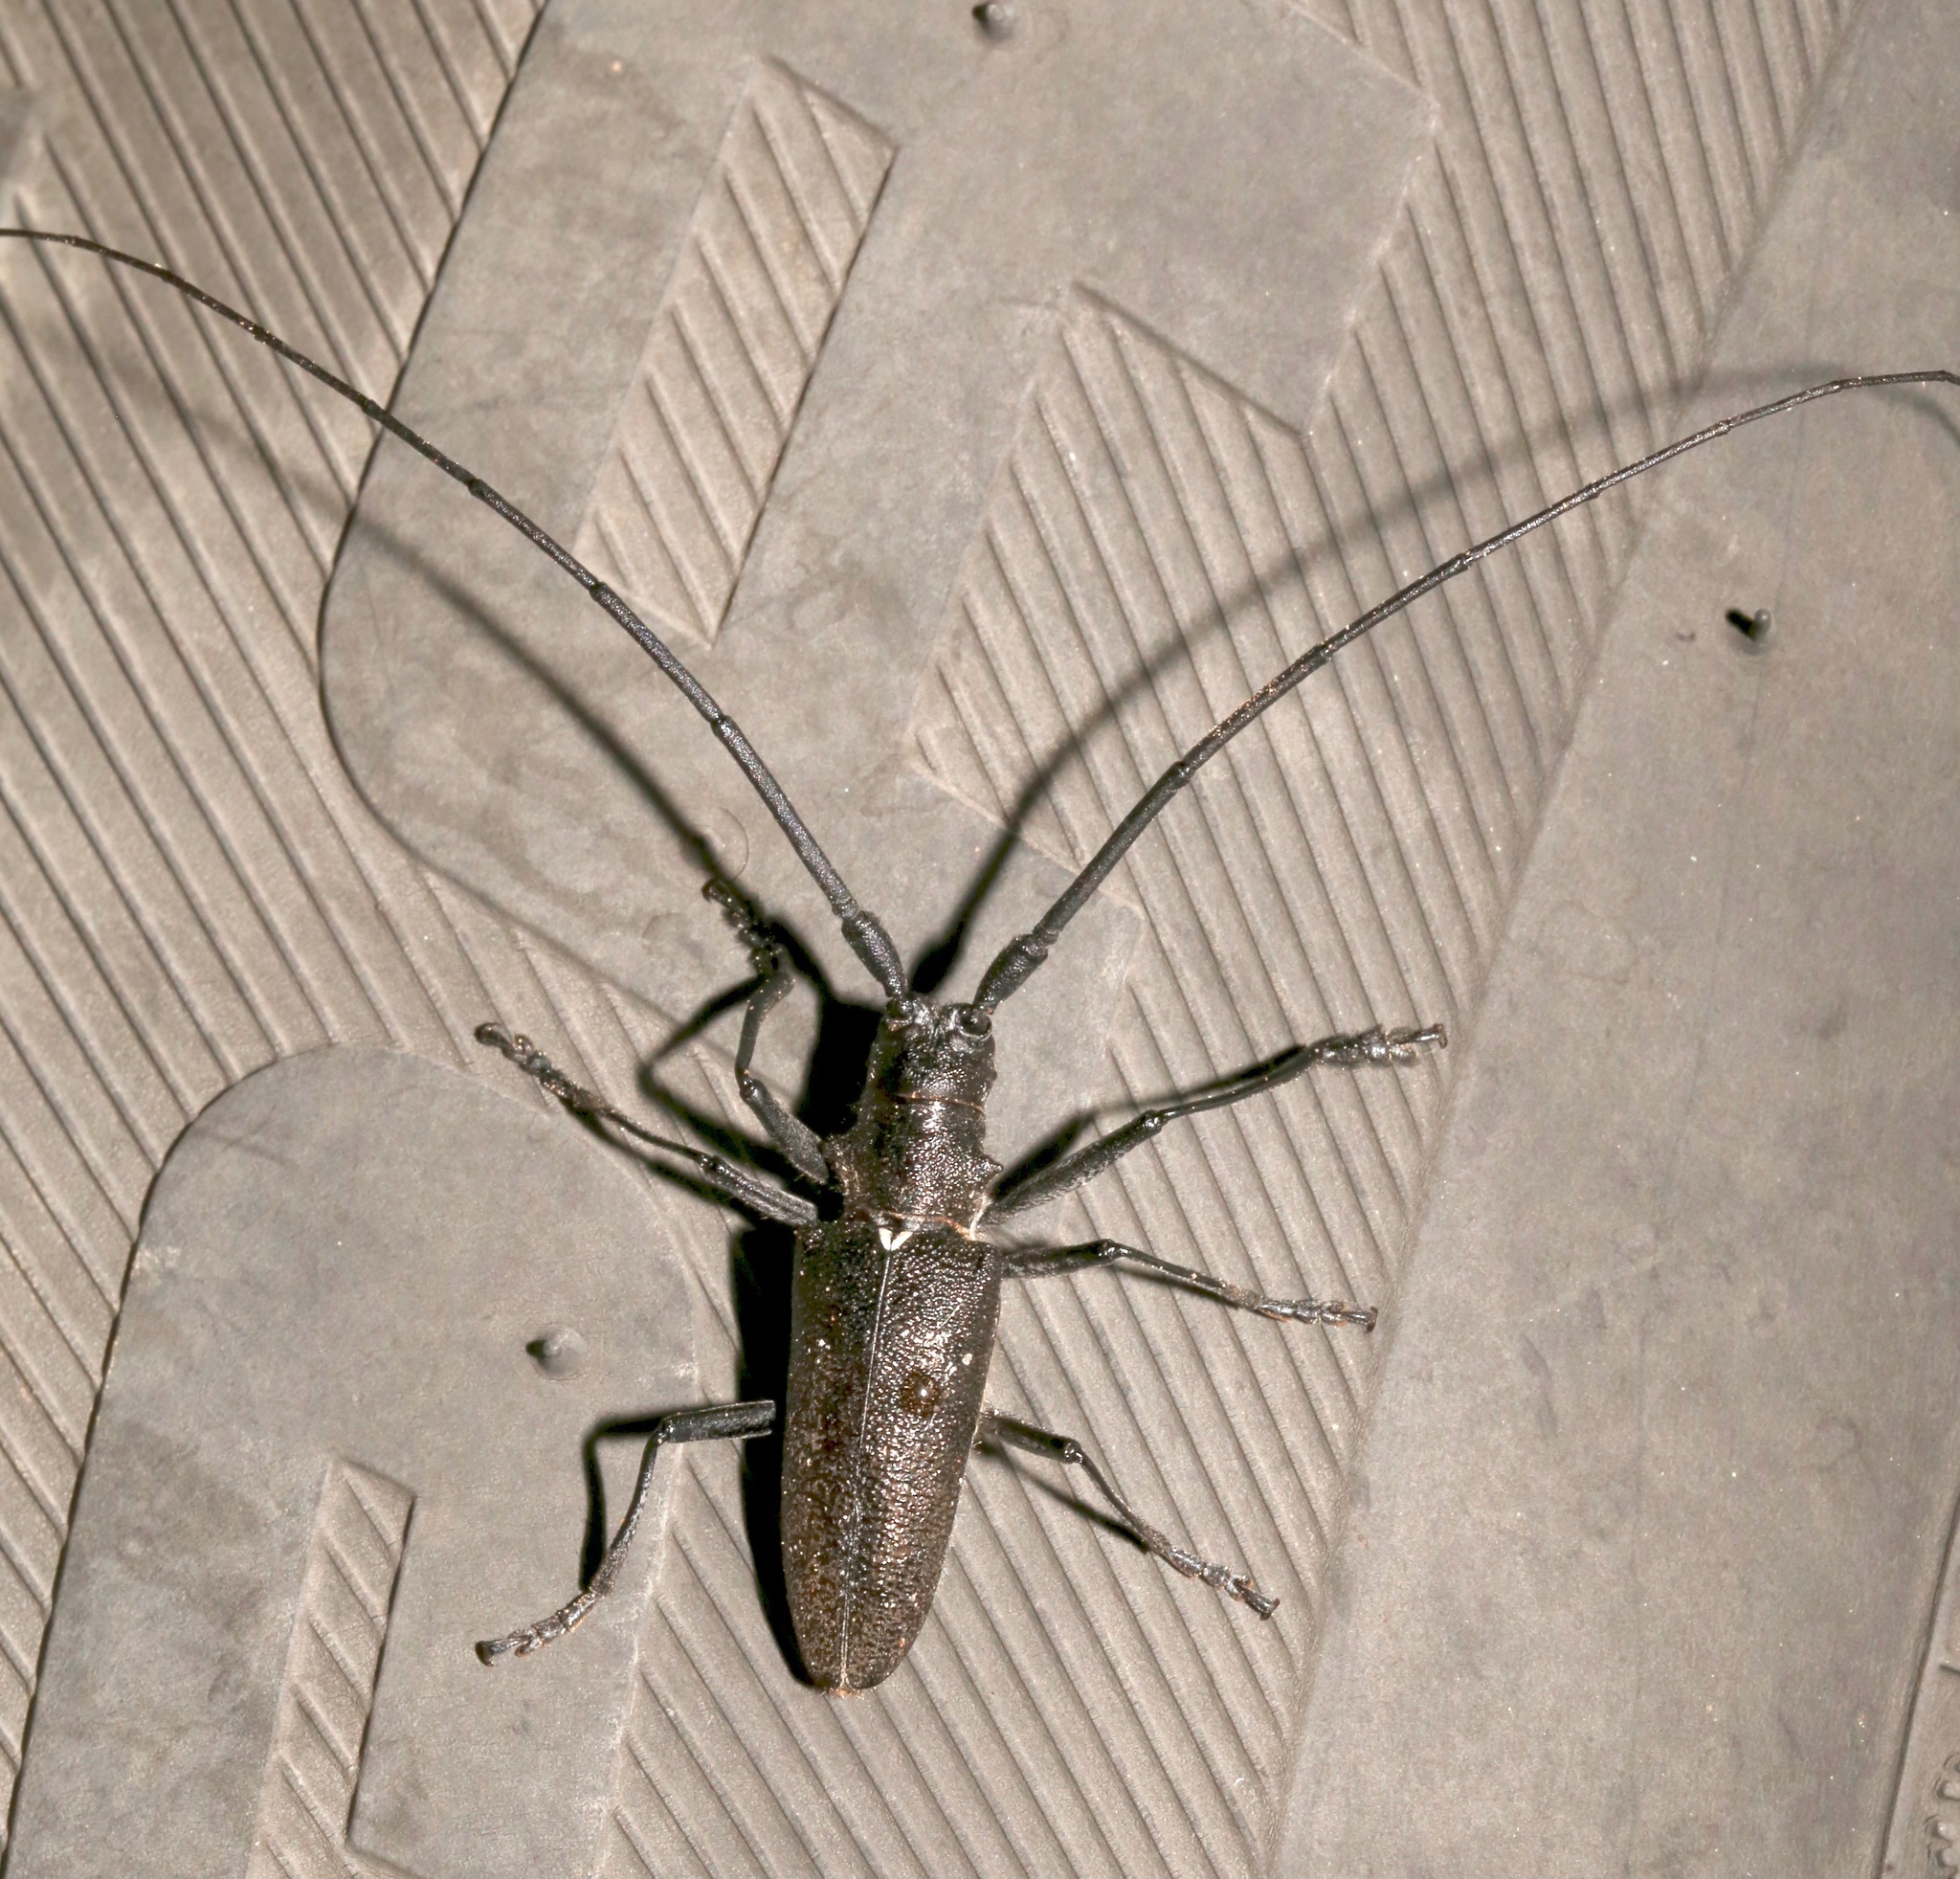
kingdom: Animalia
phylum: Arthropoda
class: Insecta
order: Coleoptera
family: Cerambycidae
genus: Monochamus
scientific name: Monochamus scutellatus
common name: White-spotted sawyer beetle
